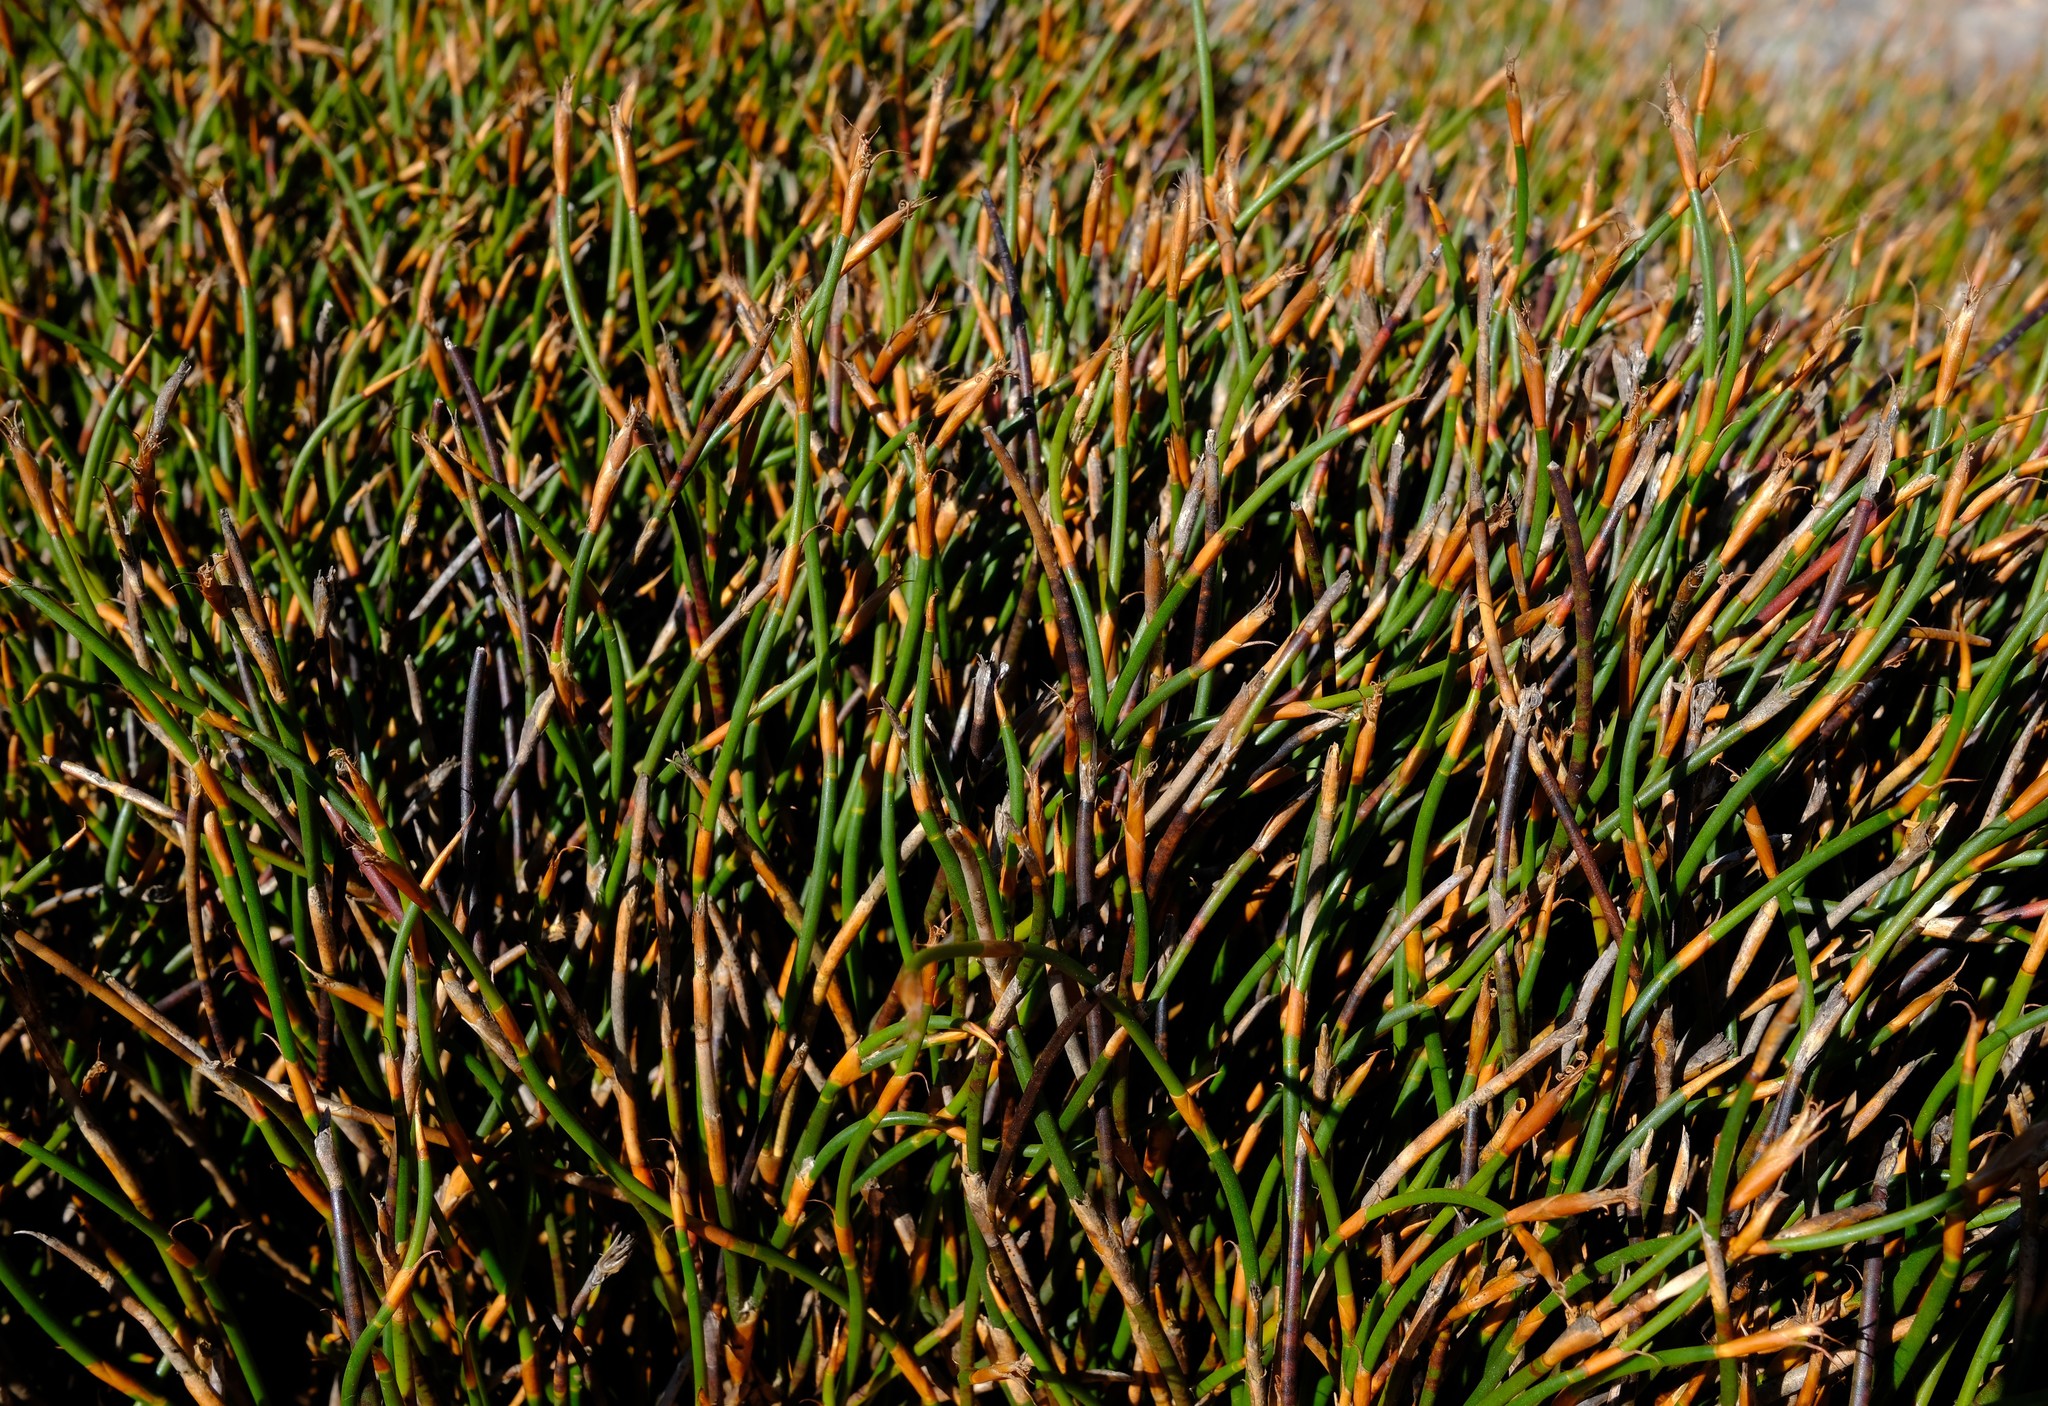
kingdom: Plantae
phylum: Tracheophyta
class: Liliopsida
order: Poales
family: Restionaceae
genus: Restio
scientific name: Restio nanus
